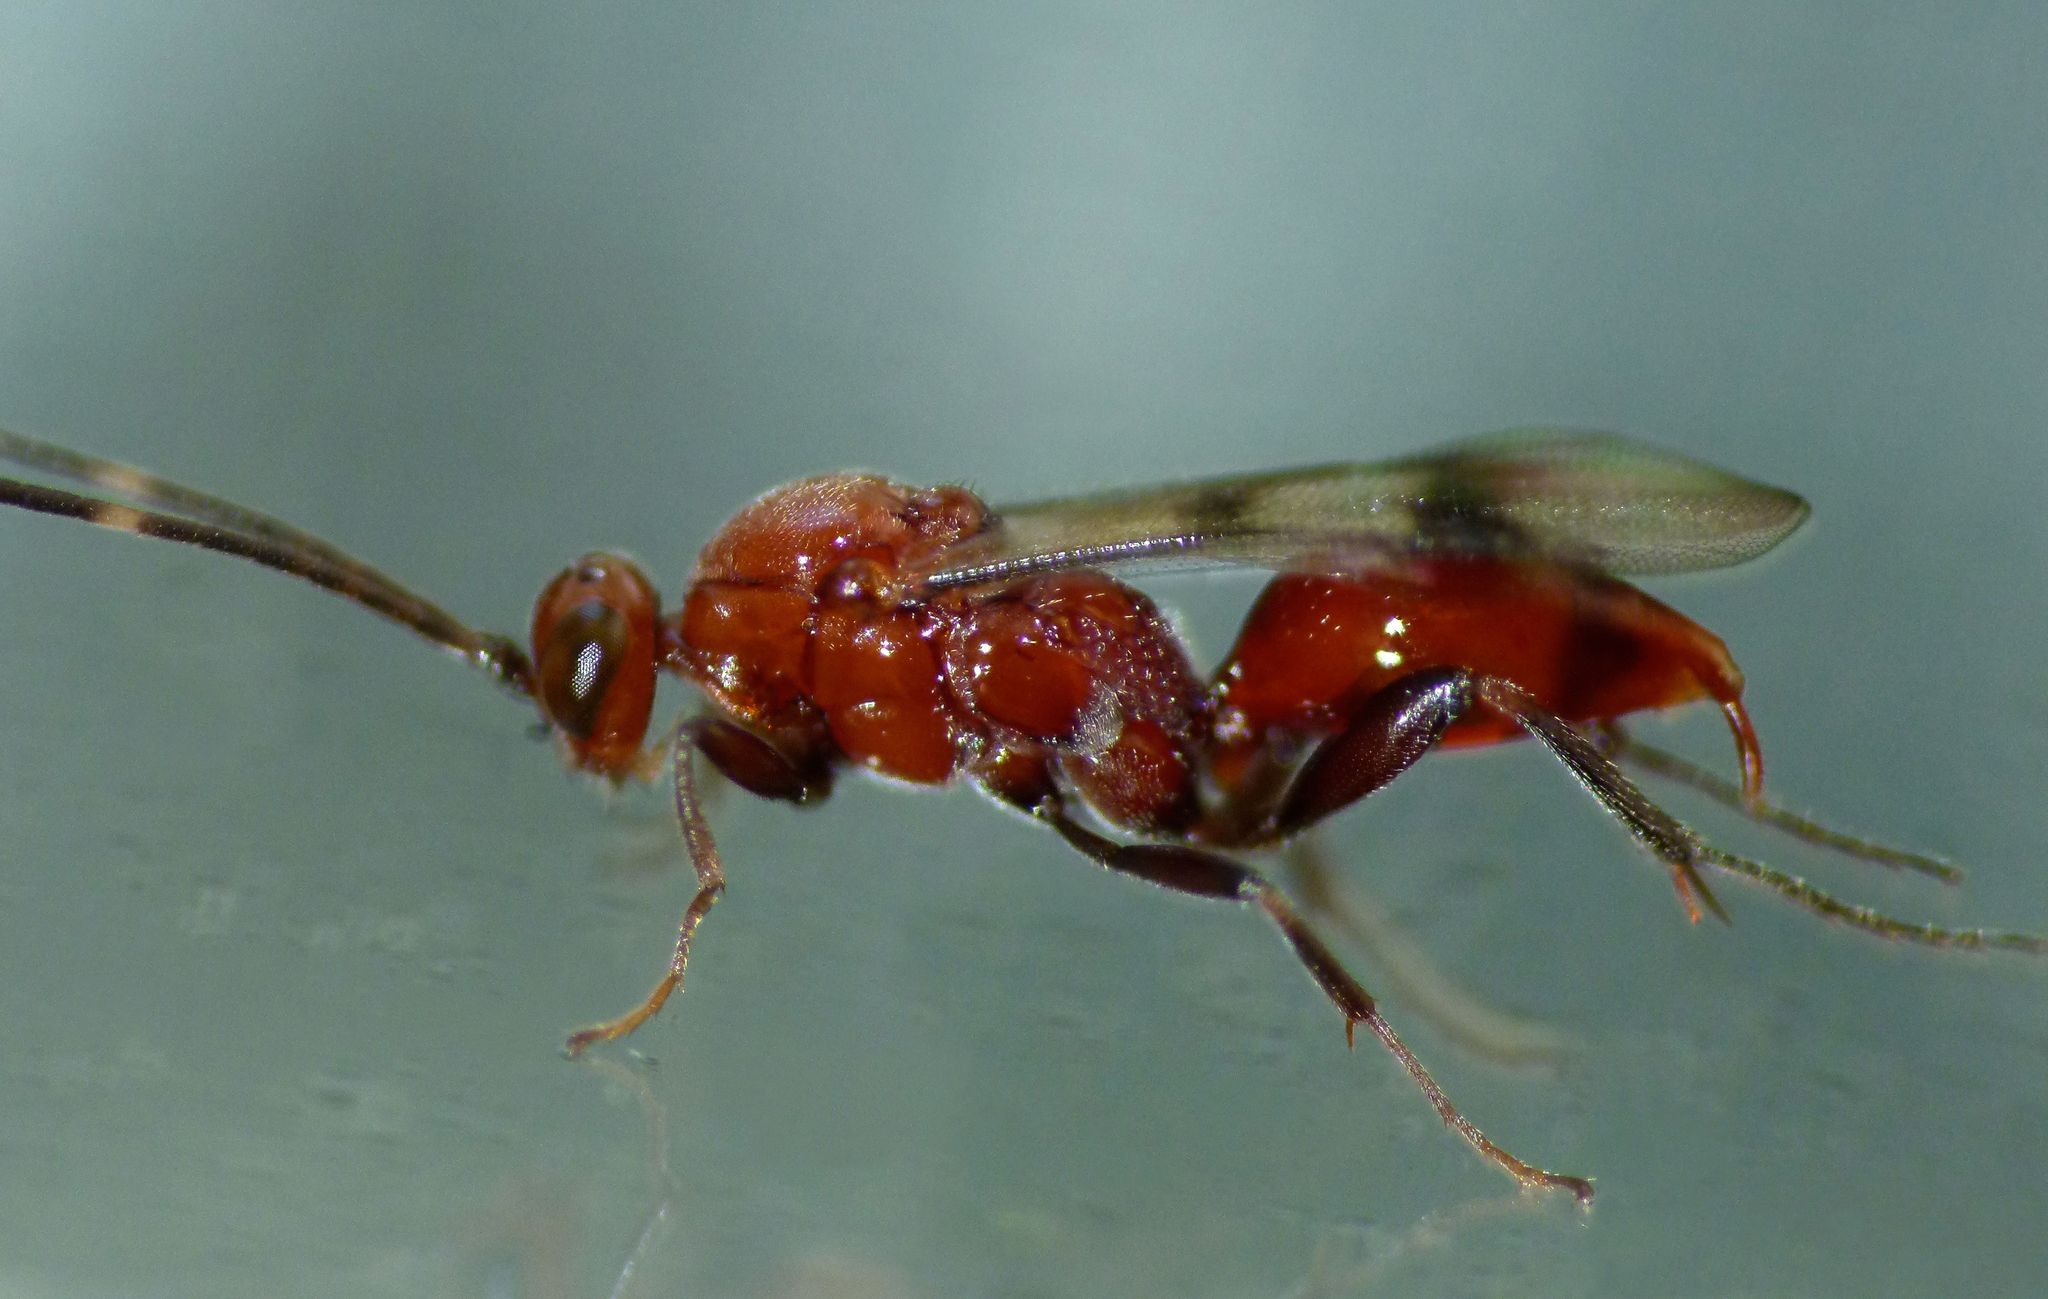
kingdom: Animalia
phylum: Arthropoda
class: Insecta
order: Hymenoptera
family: Proctotrupidae
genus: Fustiserphus
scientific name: Fustiserphus
